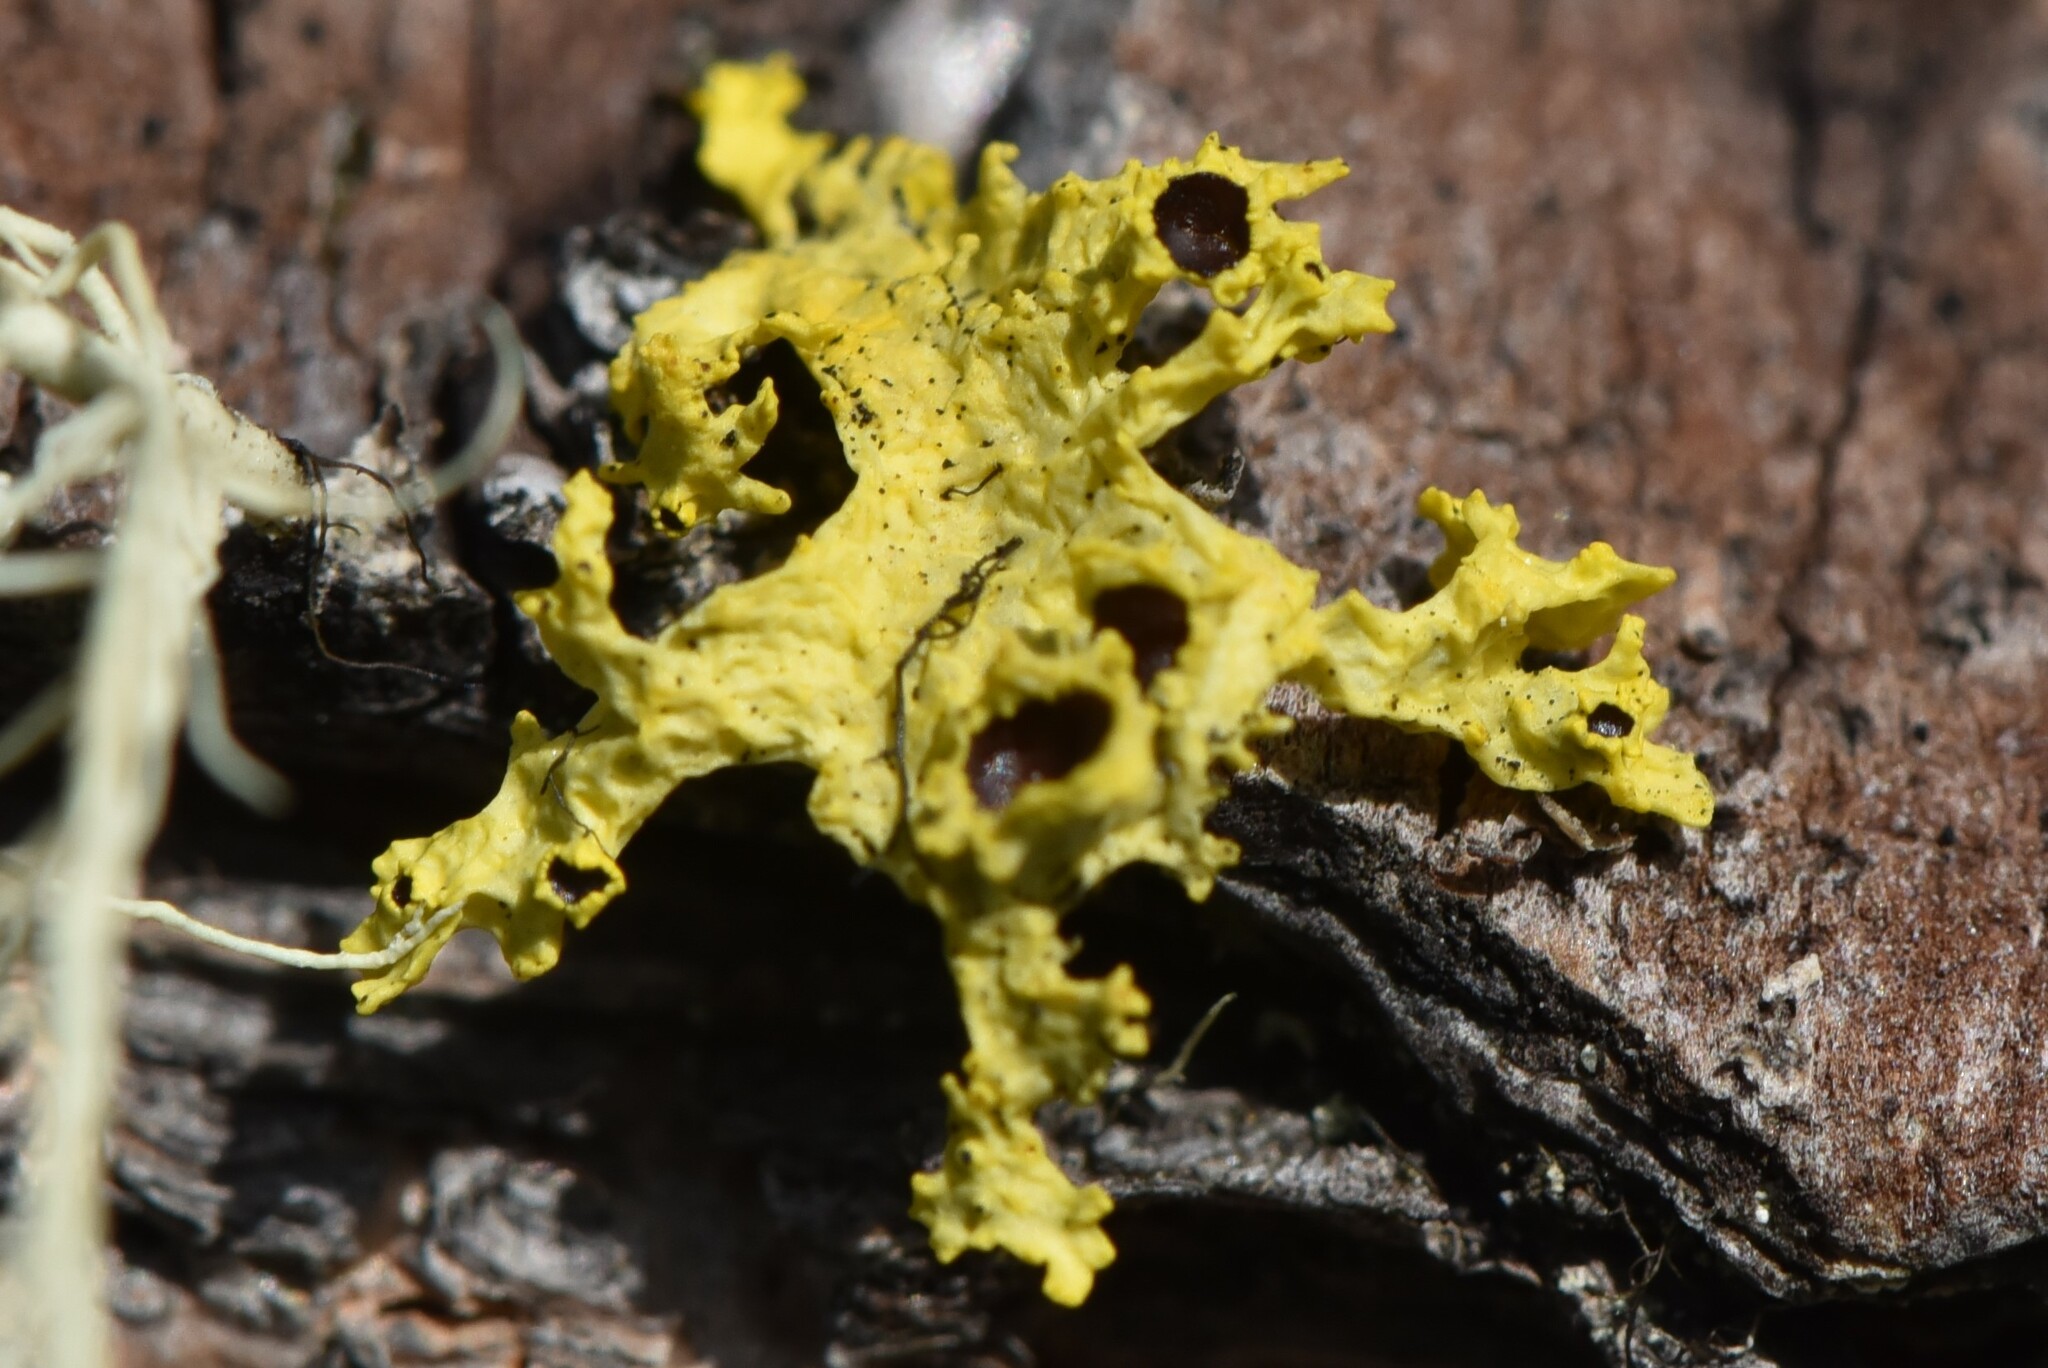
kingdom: Fungi
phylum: Ascomycota
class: Lecanoromycetes
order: Lecanorales
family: Parmeliaceae
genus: Vulpicida
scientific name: Vulpicida canadensis
